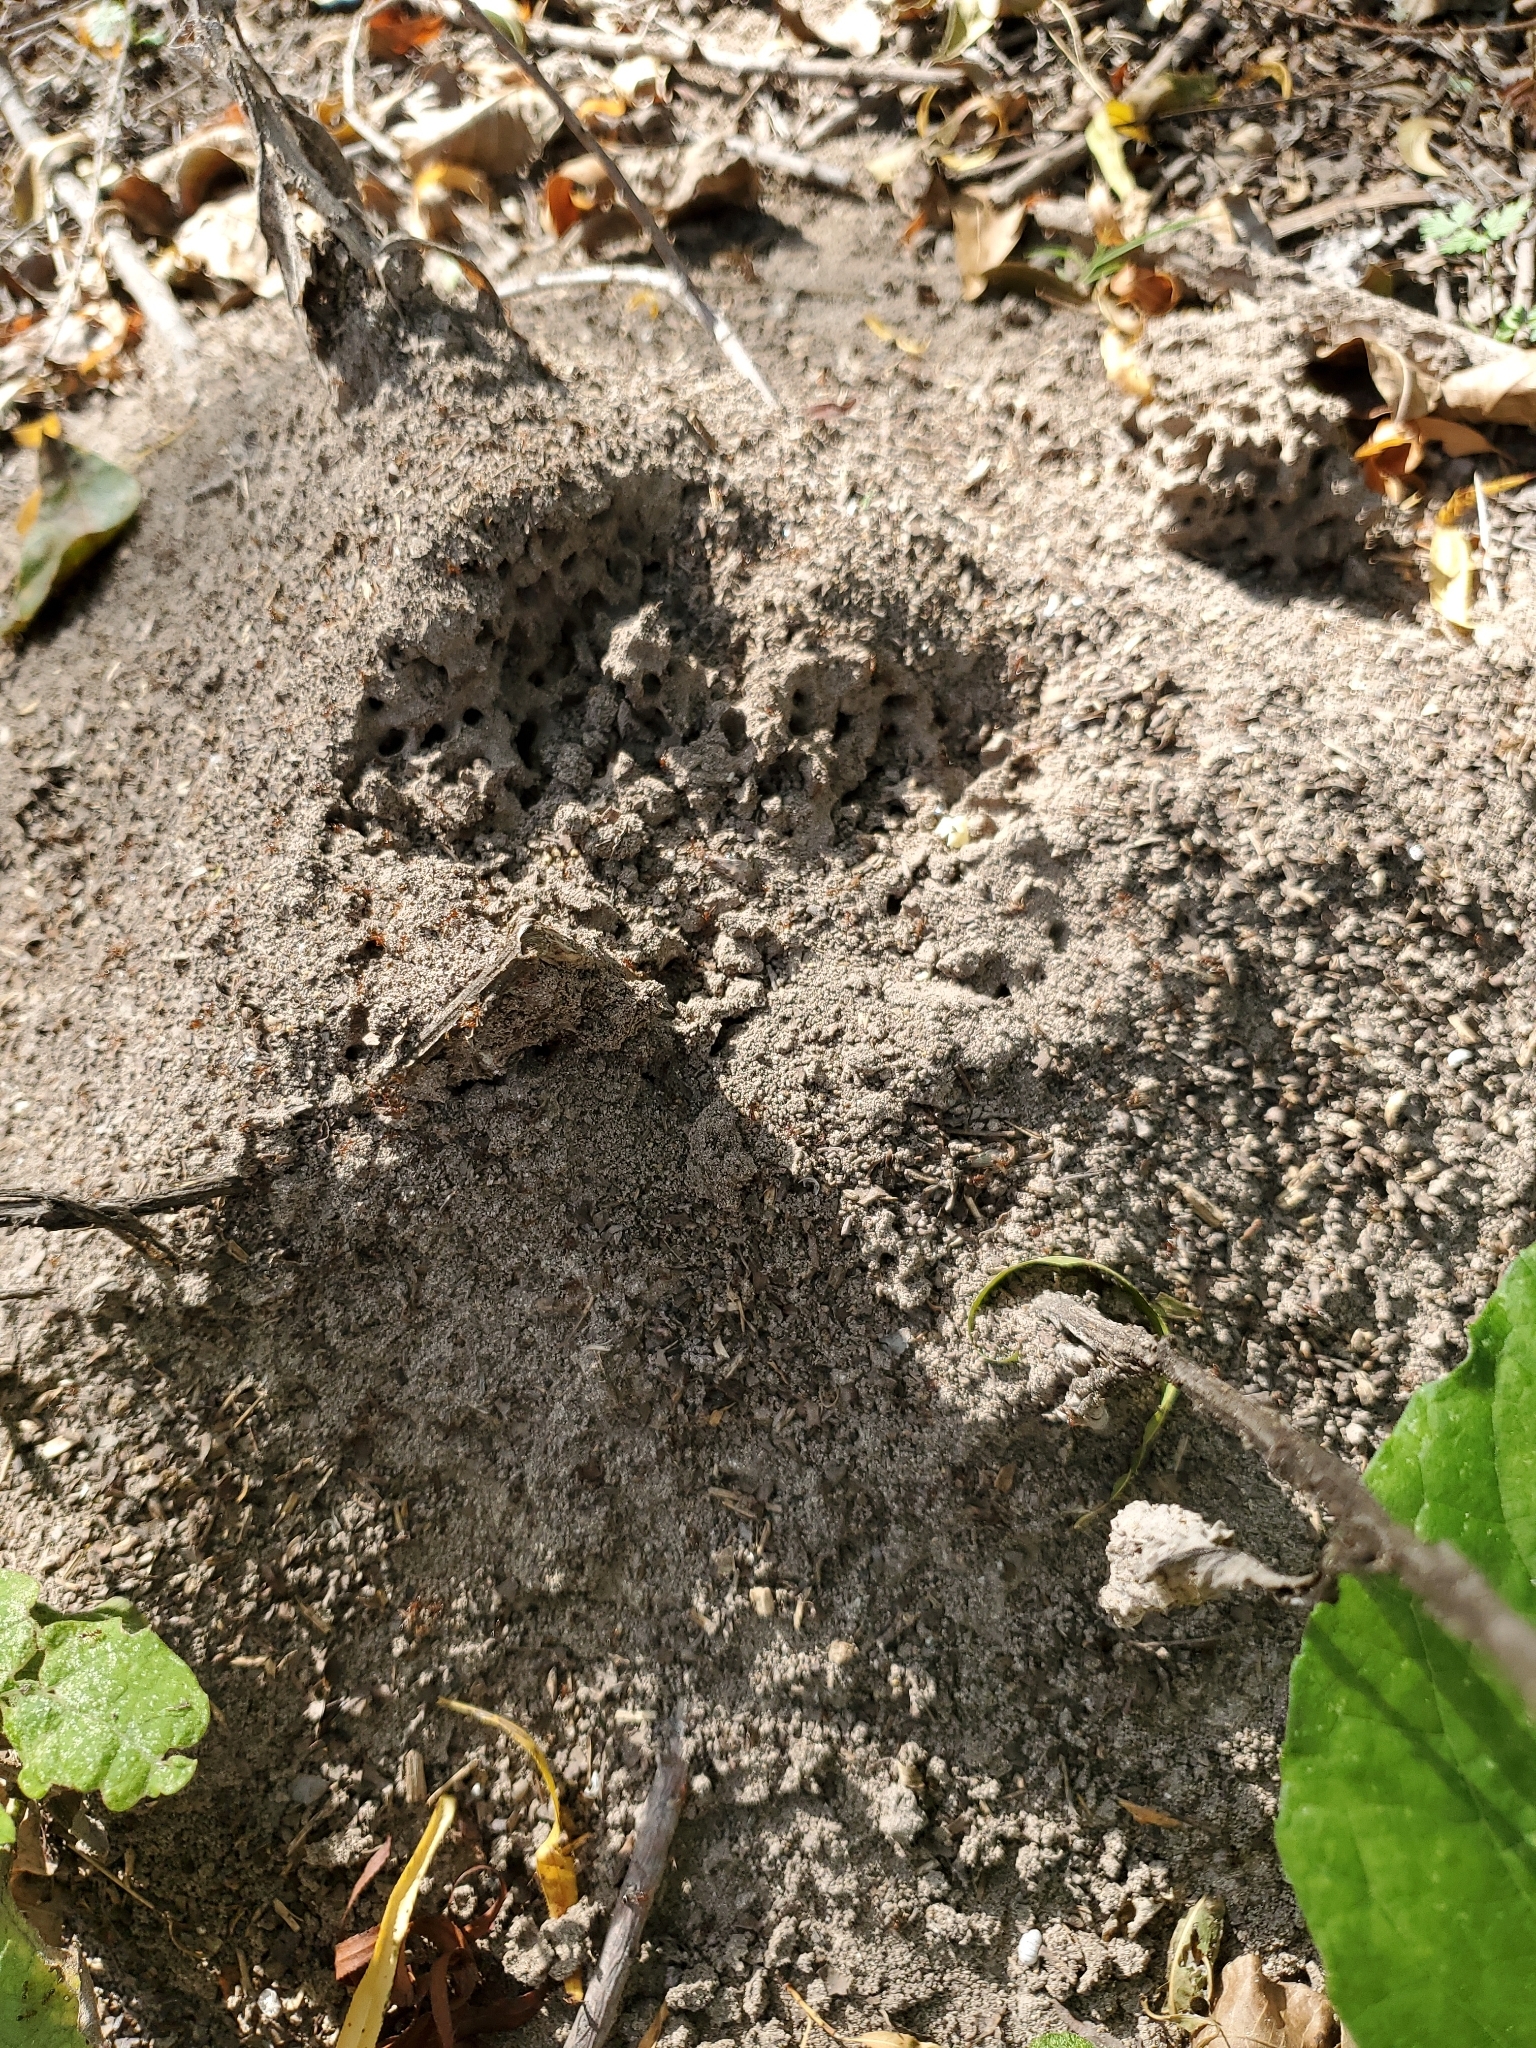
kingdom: Animalia
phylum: Arthropoda
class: Insecta
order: Hymenoptera
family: Formicidae
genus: Solenopsis
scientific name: Solenopsis invicta
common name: Red imported fire ant
